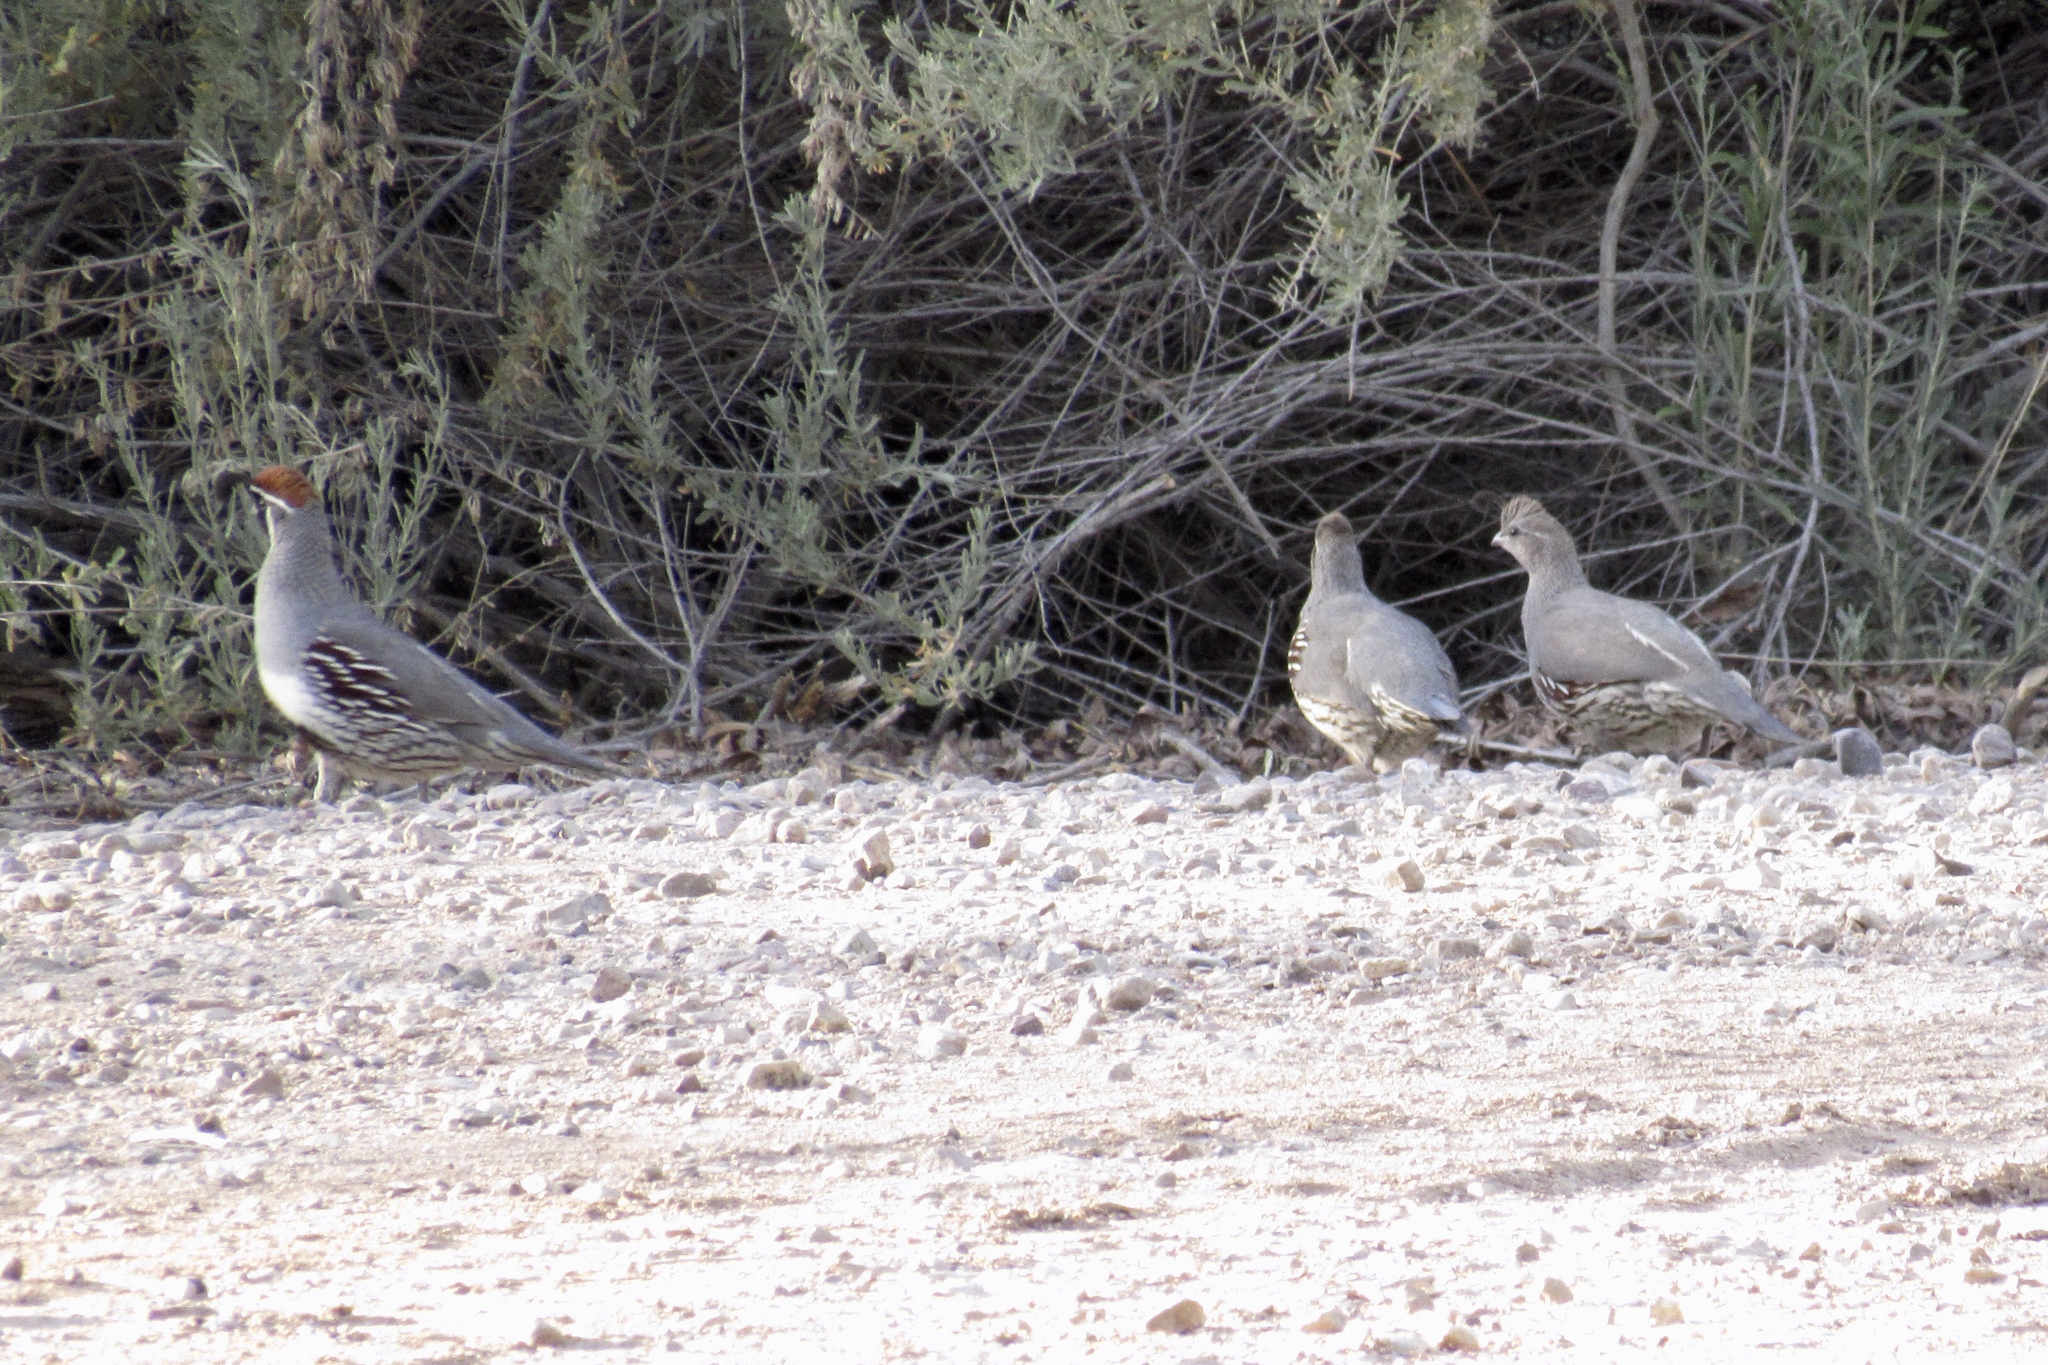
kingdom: Animalia
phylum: Chordata
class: Aves
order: Galliformes
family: Odontophoridae
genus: Callipepla
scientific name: Callipepla gambelii
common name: Gambel's quail
